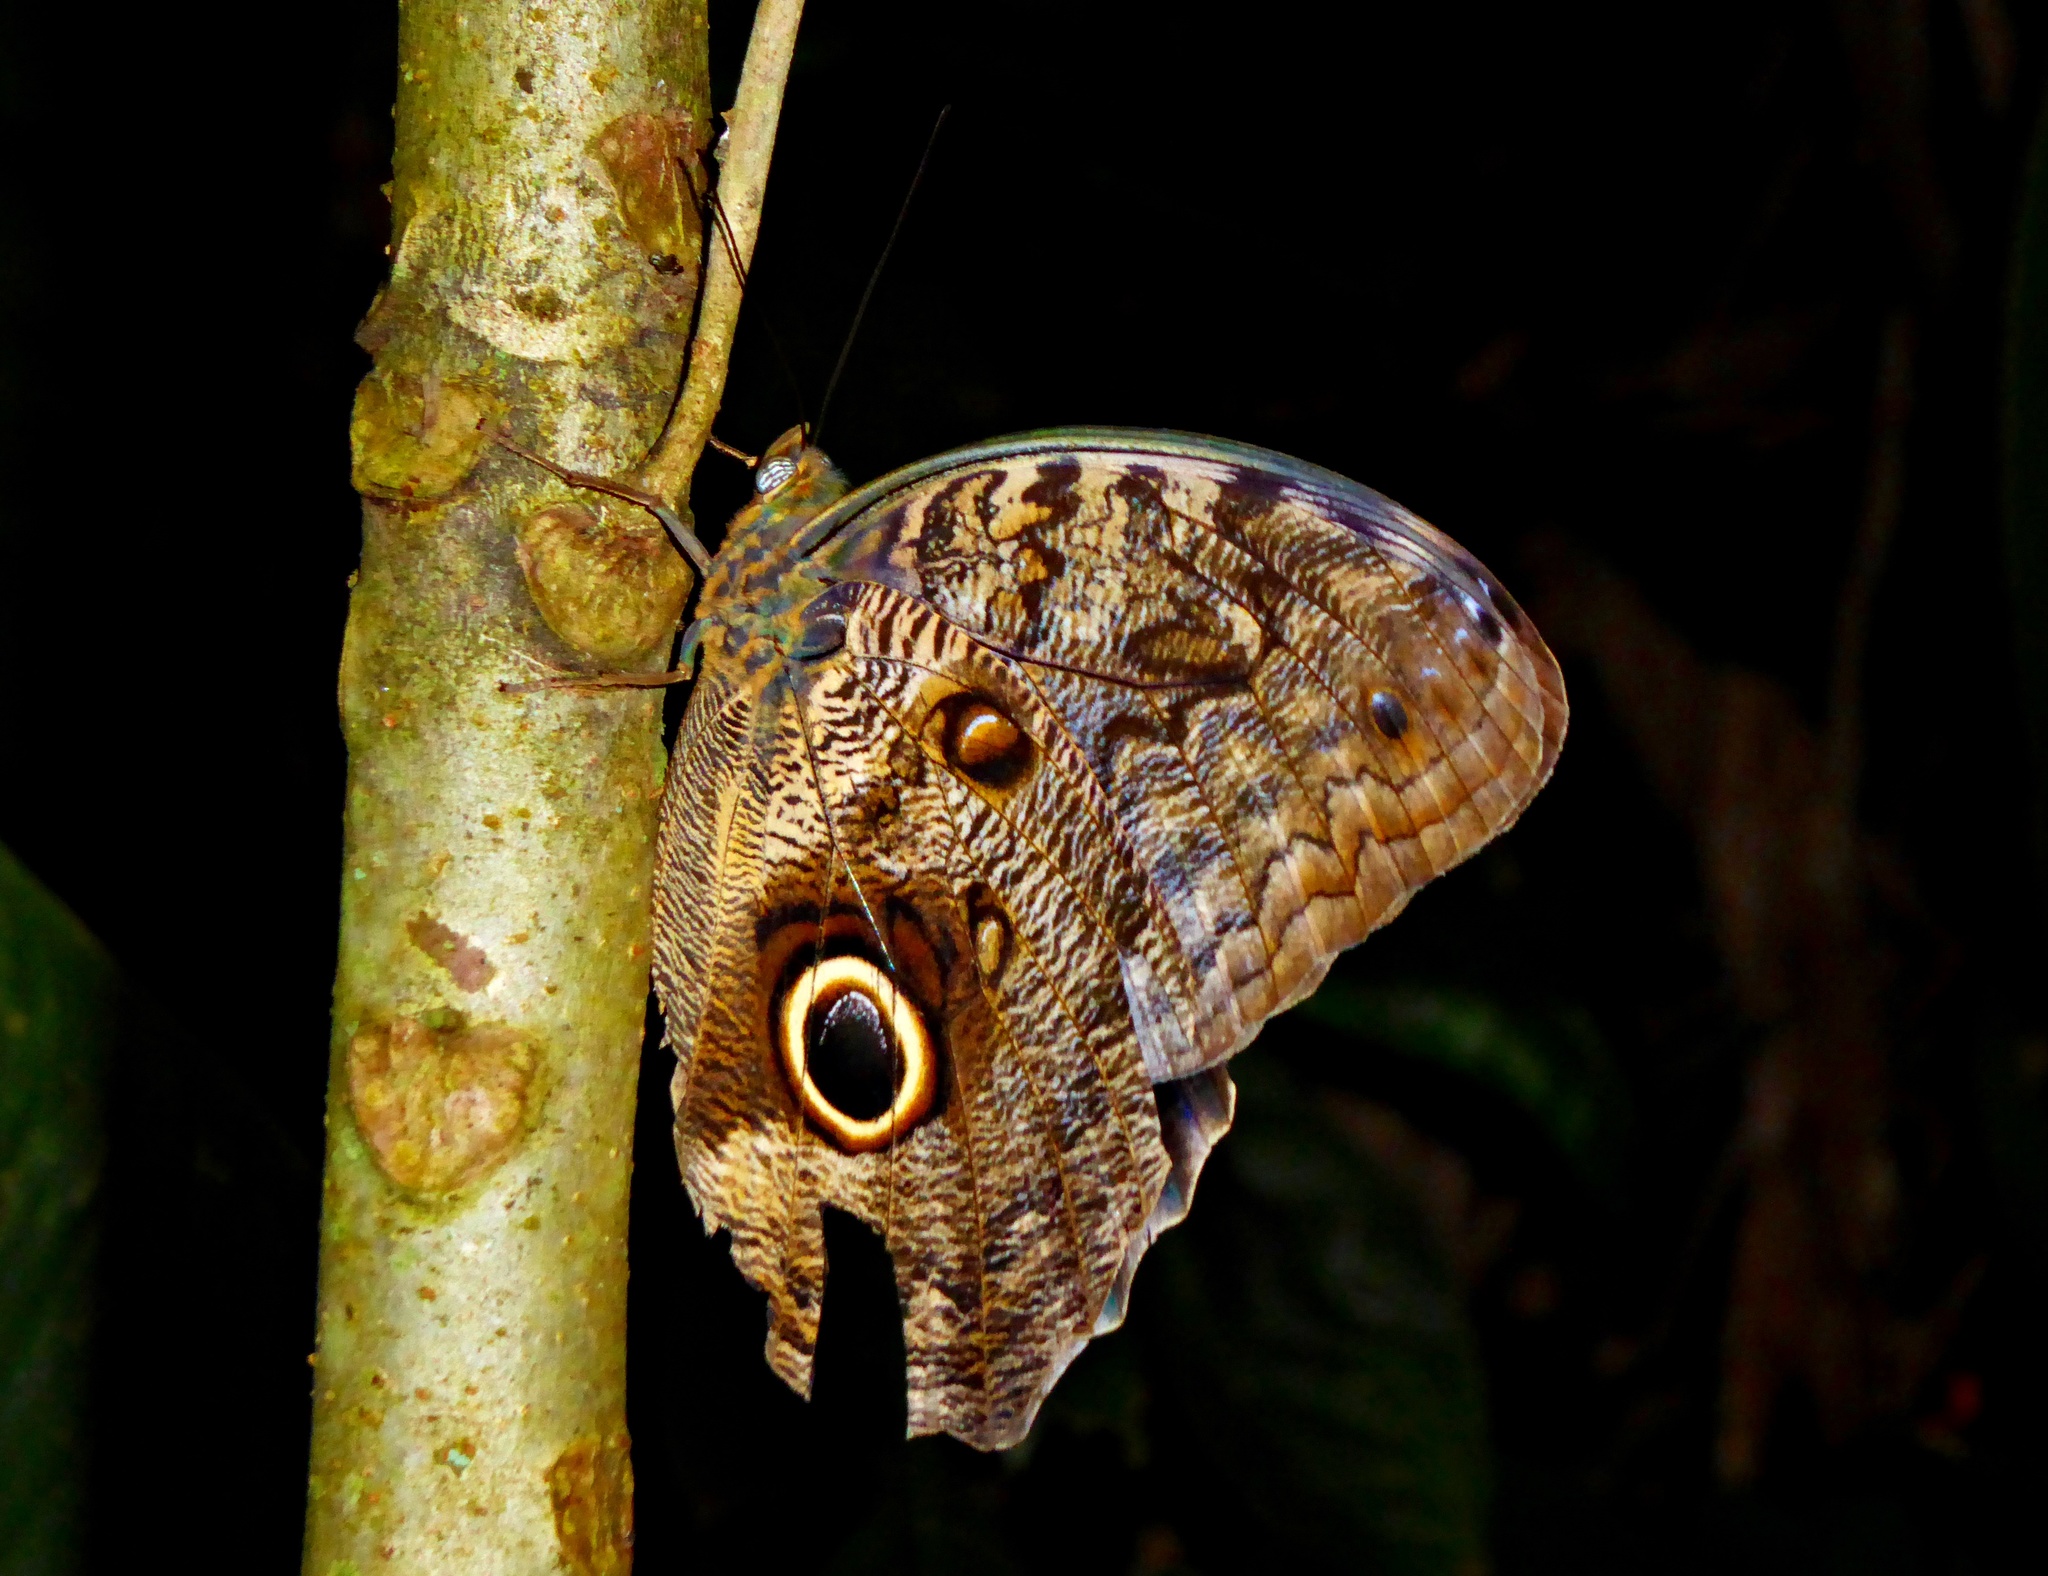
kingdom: Animalia
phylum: Arthropoda
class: Insecta
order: Lepidoptera
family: Nymphalidae
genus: Caligo
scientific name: Caligo brasiliensis
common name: Dark owl-butterfly
